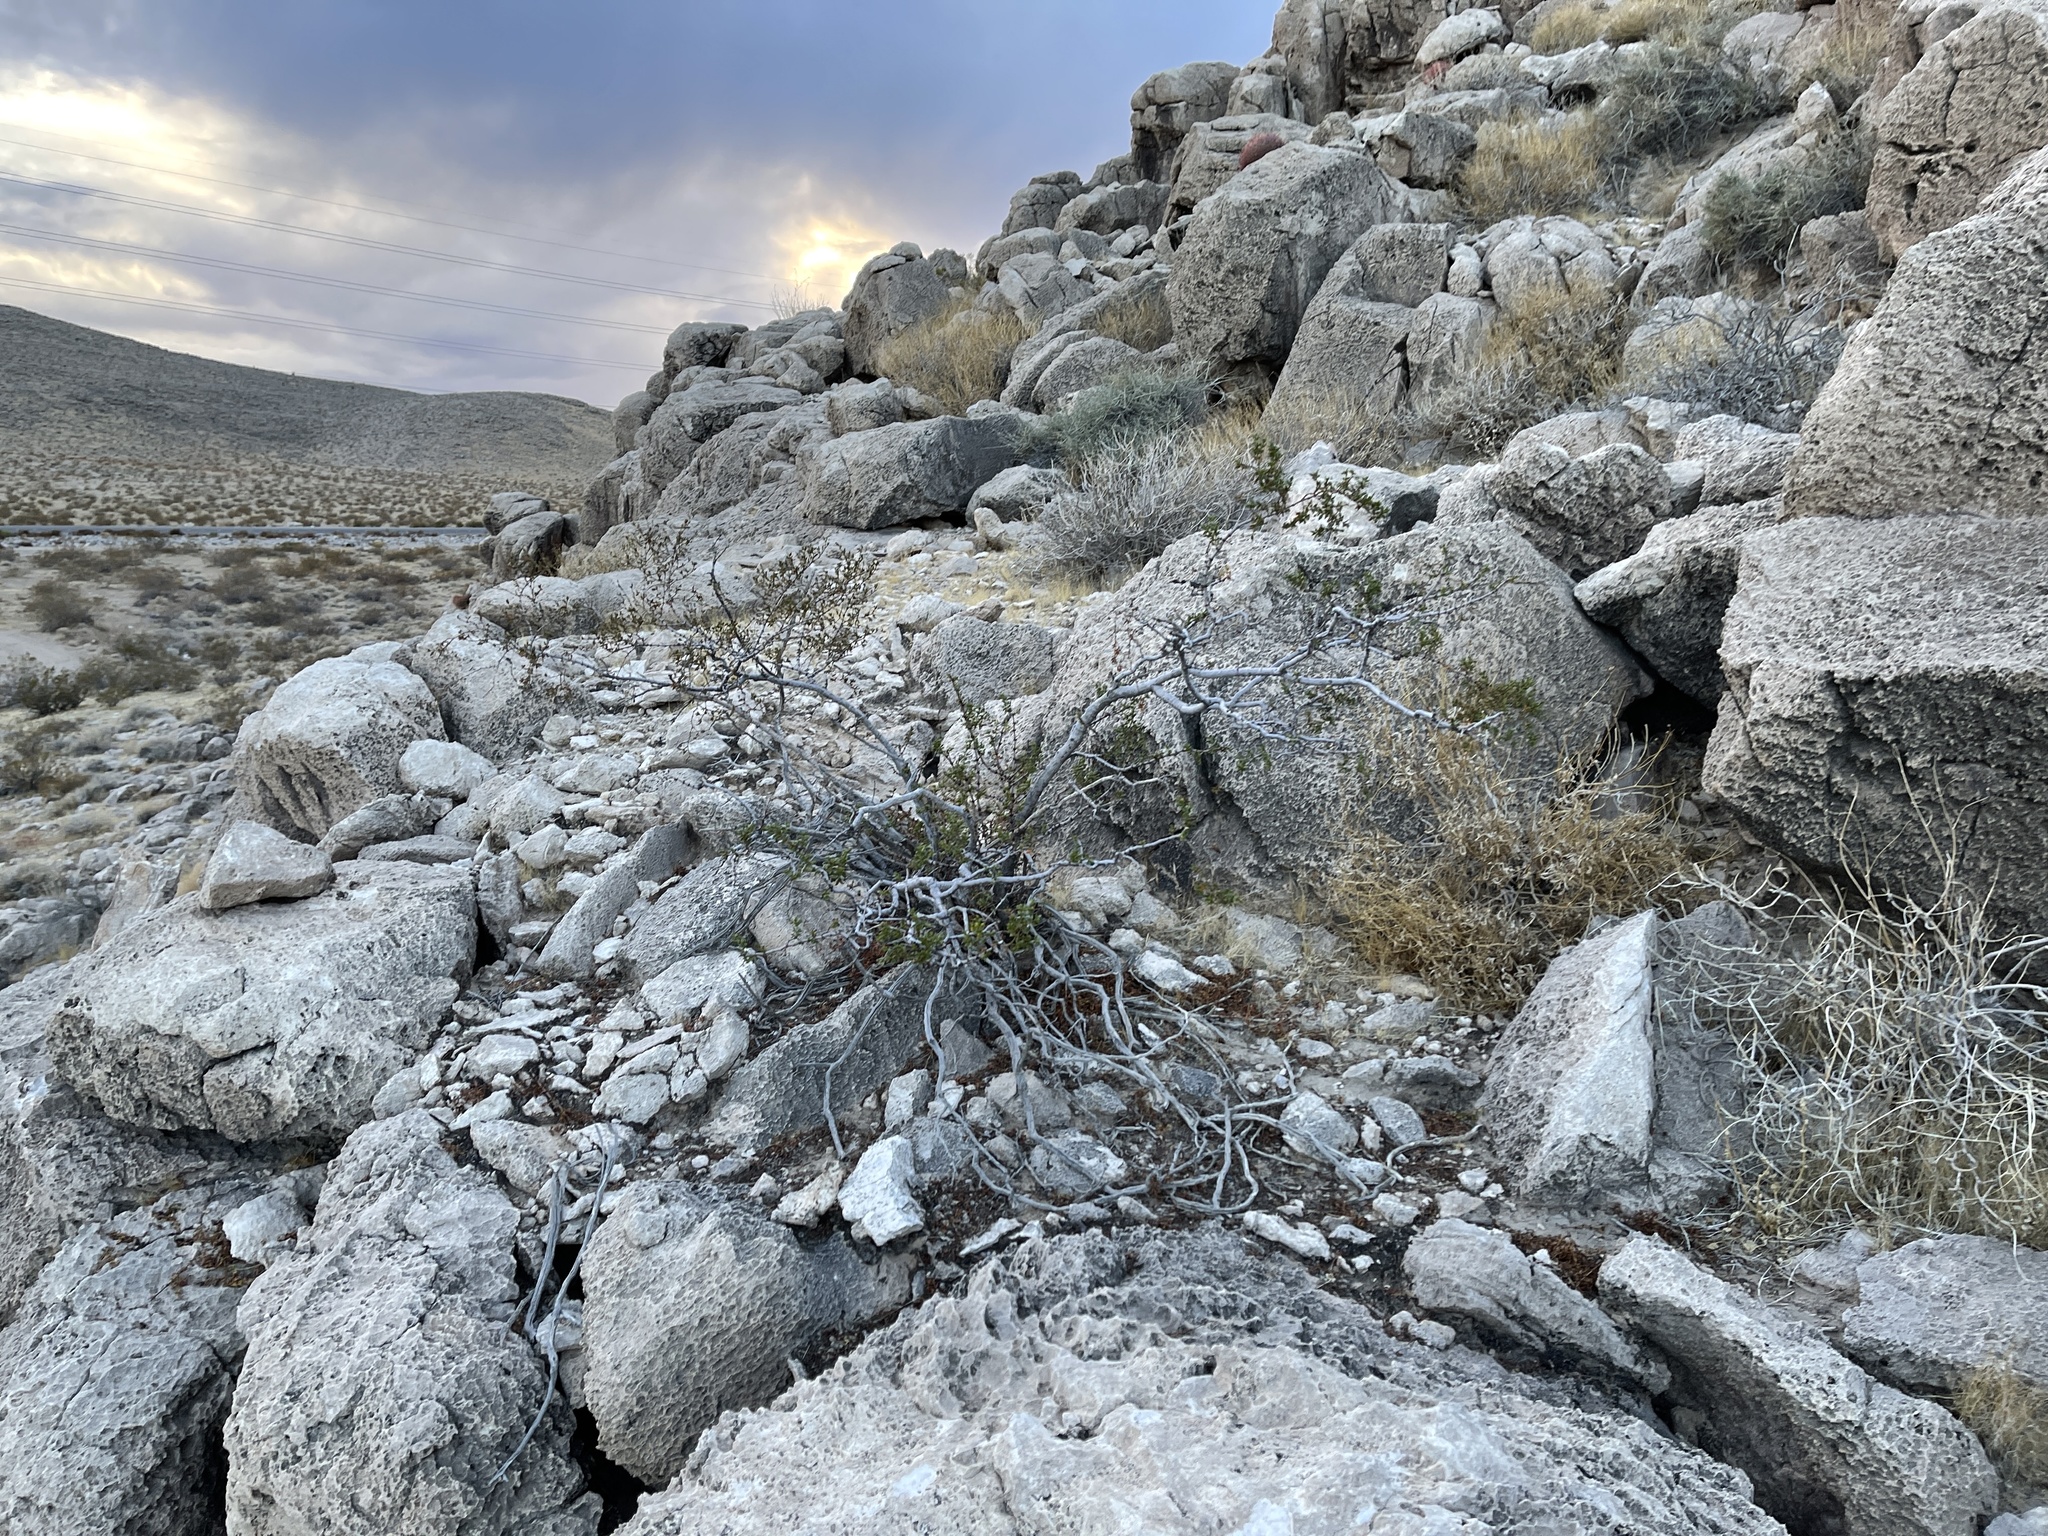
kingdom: Plantae
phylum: Tracheophyta
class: Magnoliopsida
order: Zygophyllales
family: Zygophyllaceae
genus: Larrea
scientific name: Larrea tridentata
